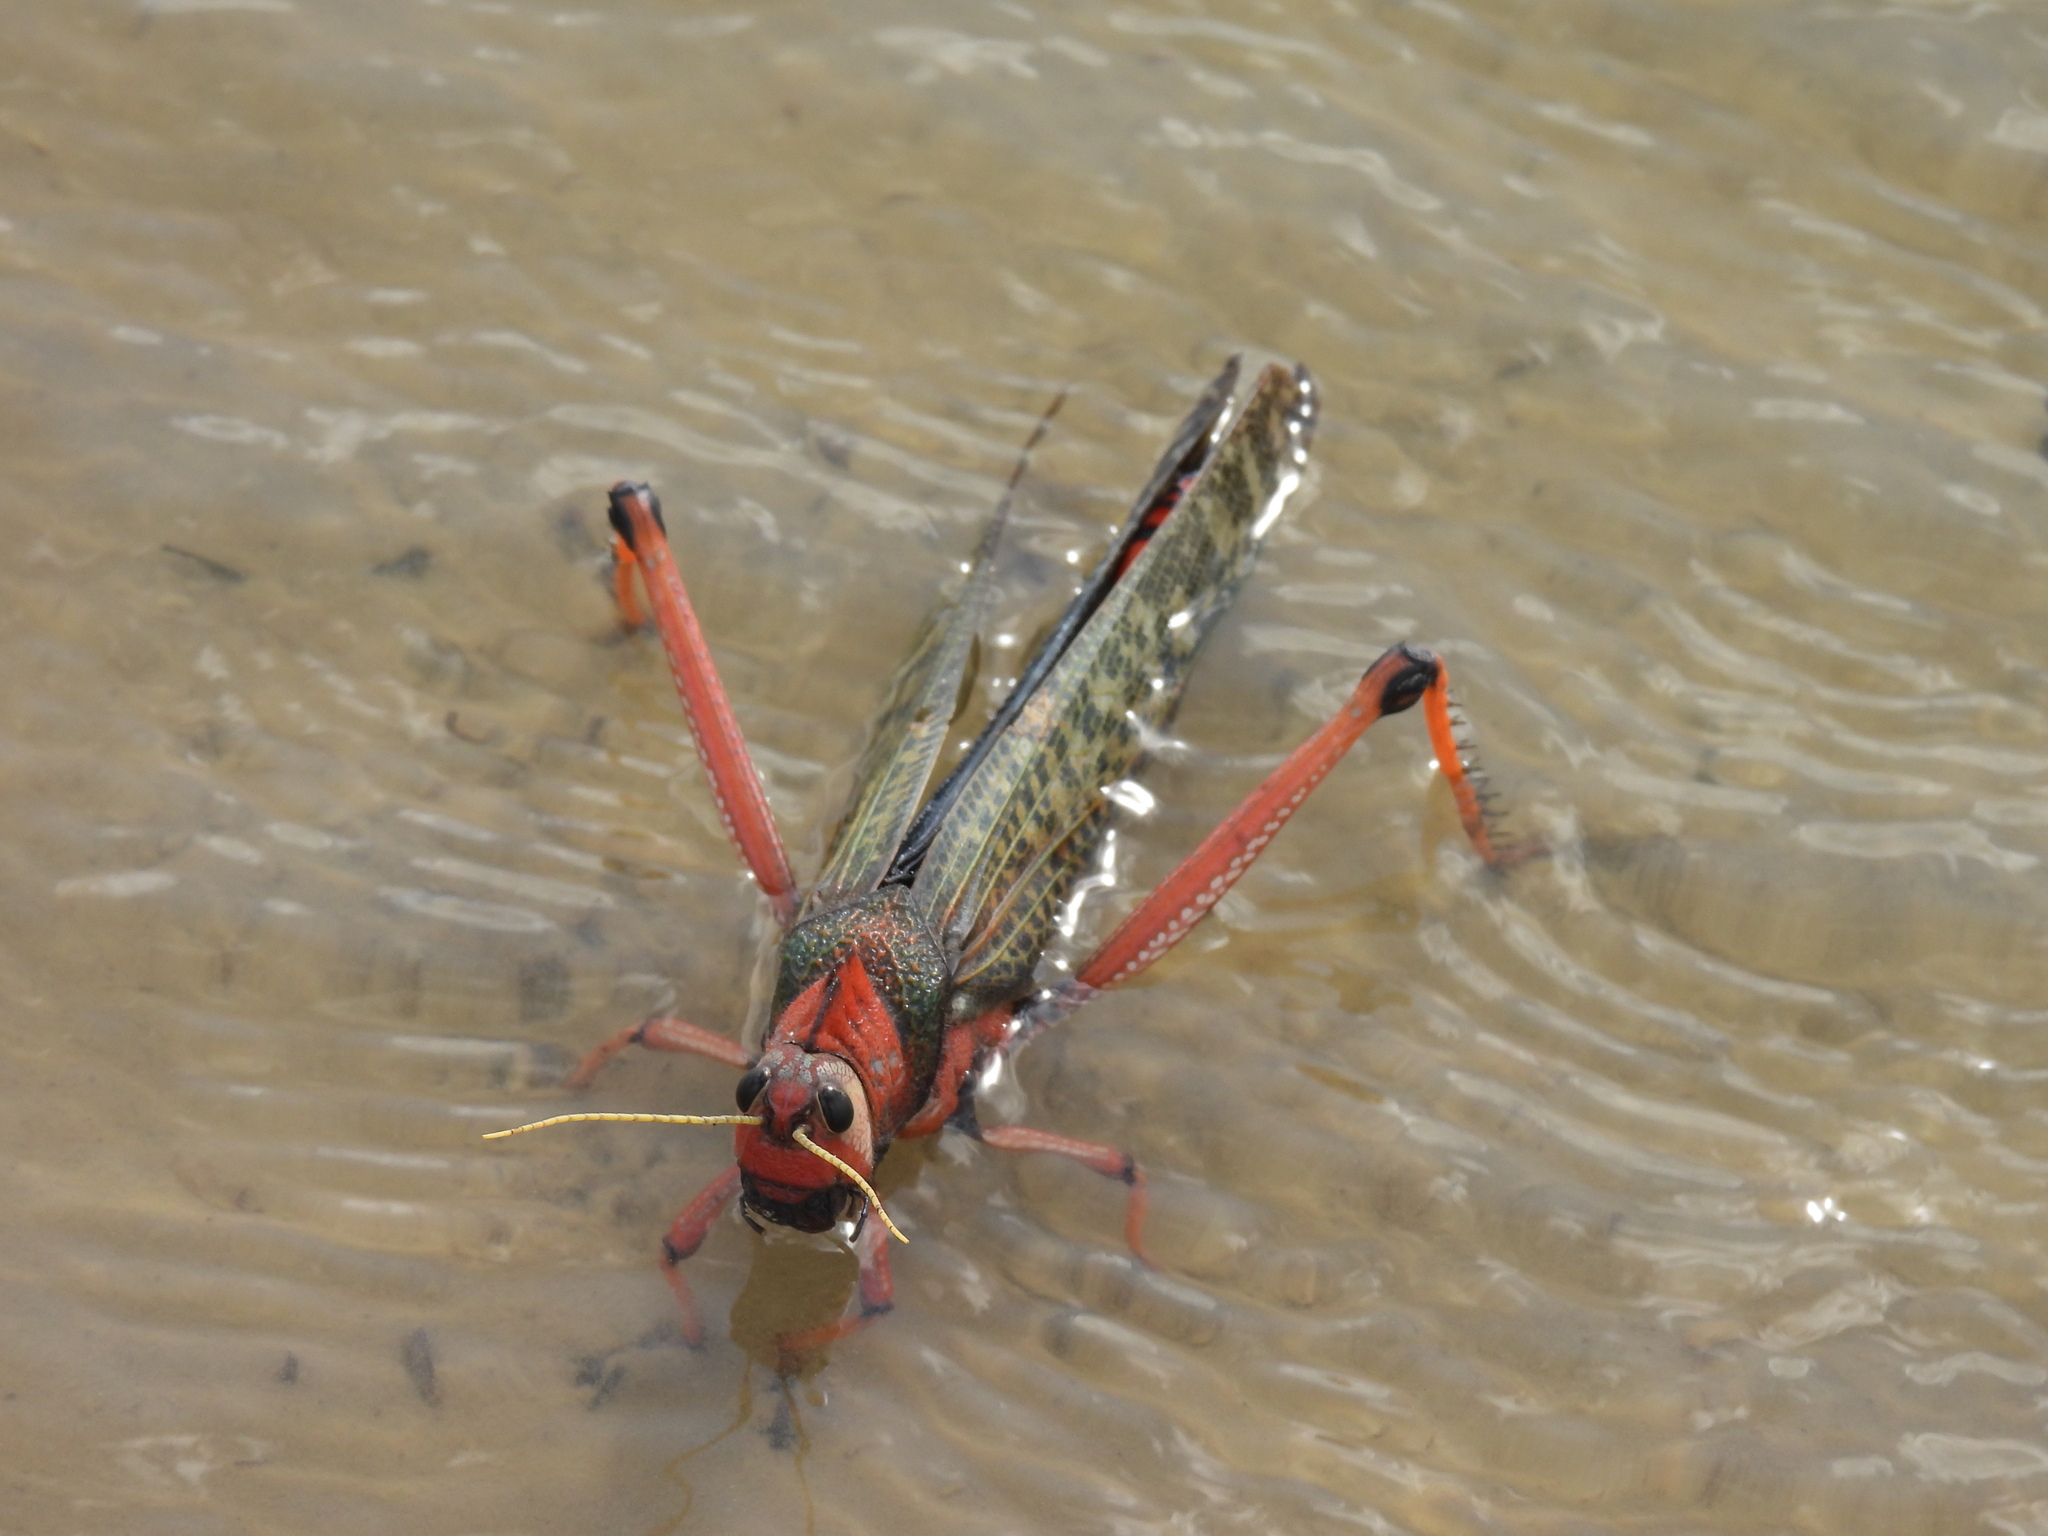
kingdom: Animalia
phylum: Arthropoda
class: Insecta
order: Orthoptera
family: Romaleidae
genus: Tropidacris
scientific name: Tropidacris collaris
